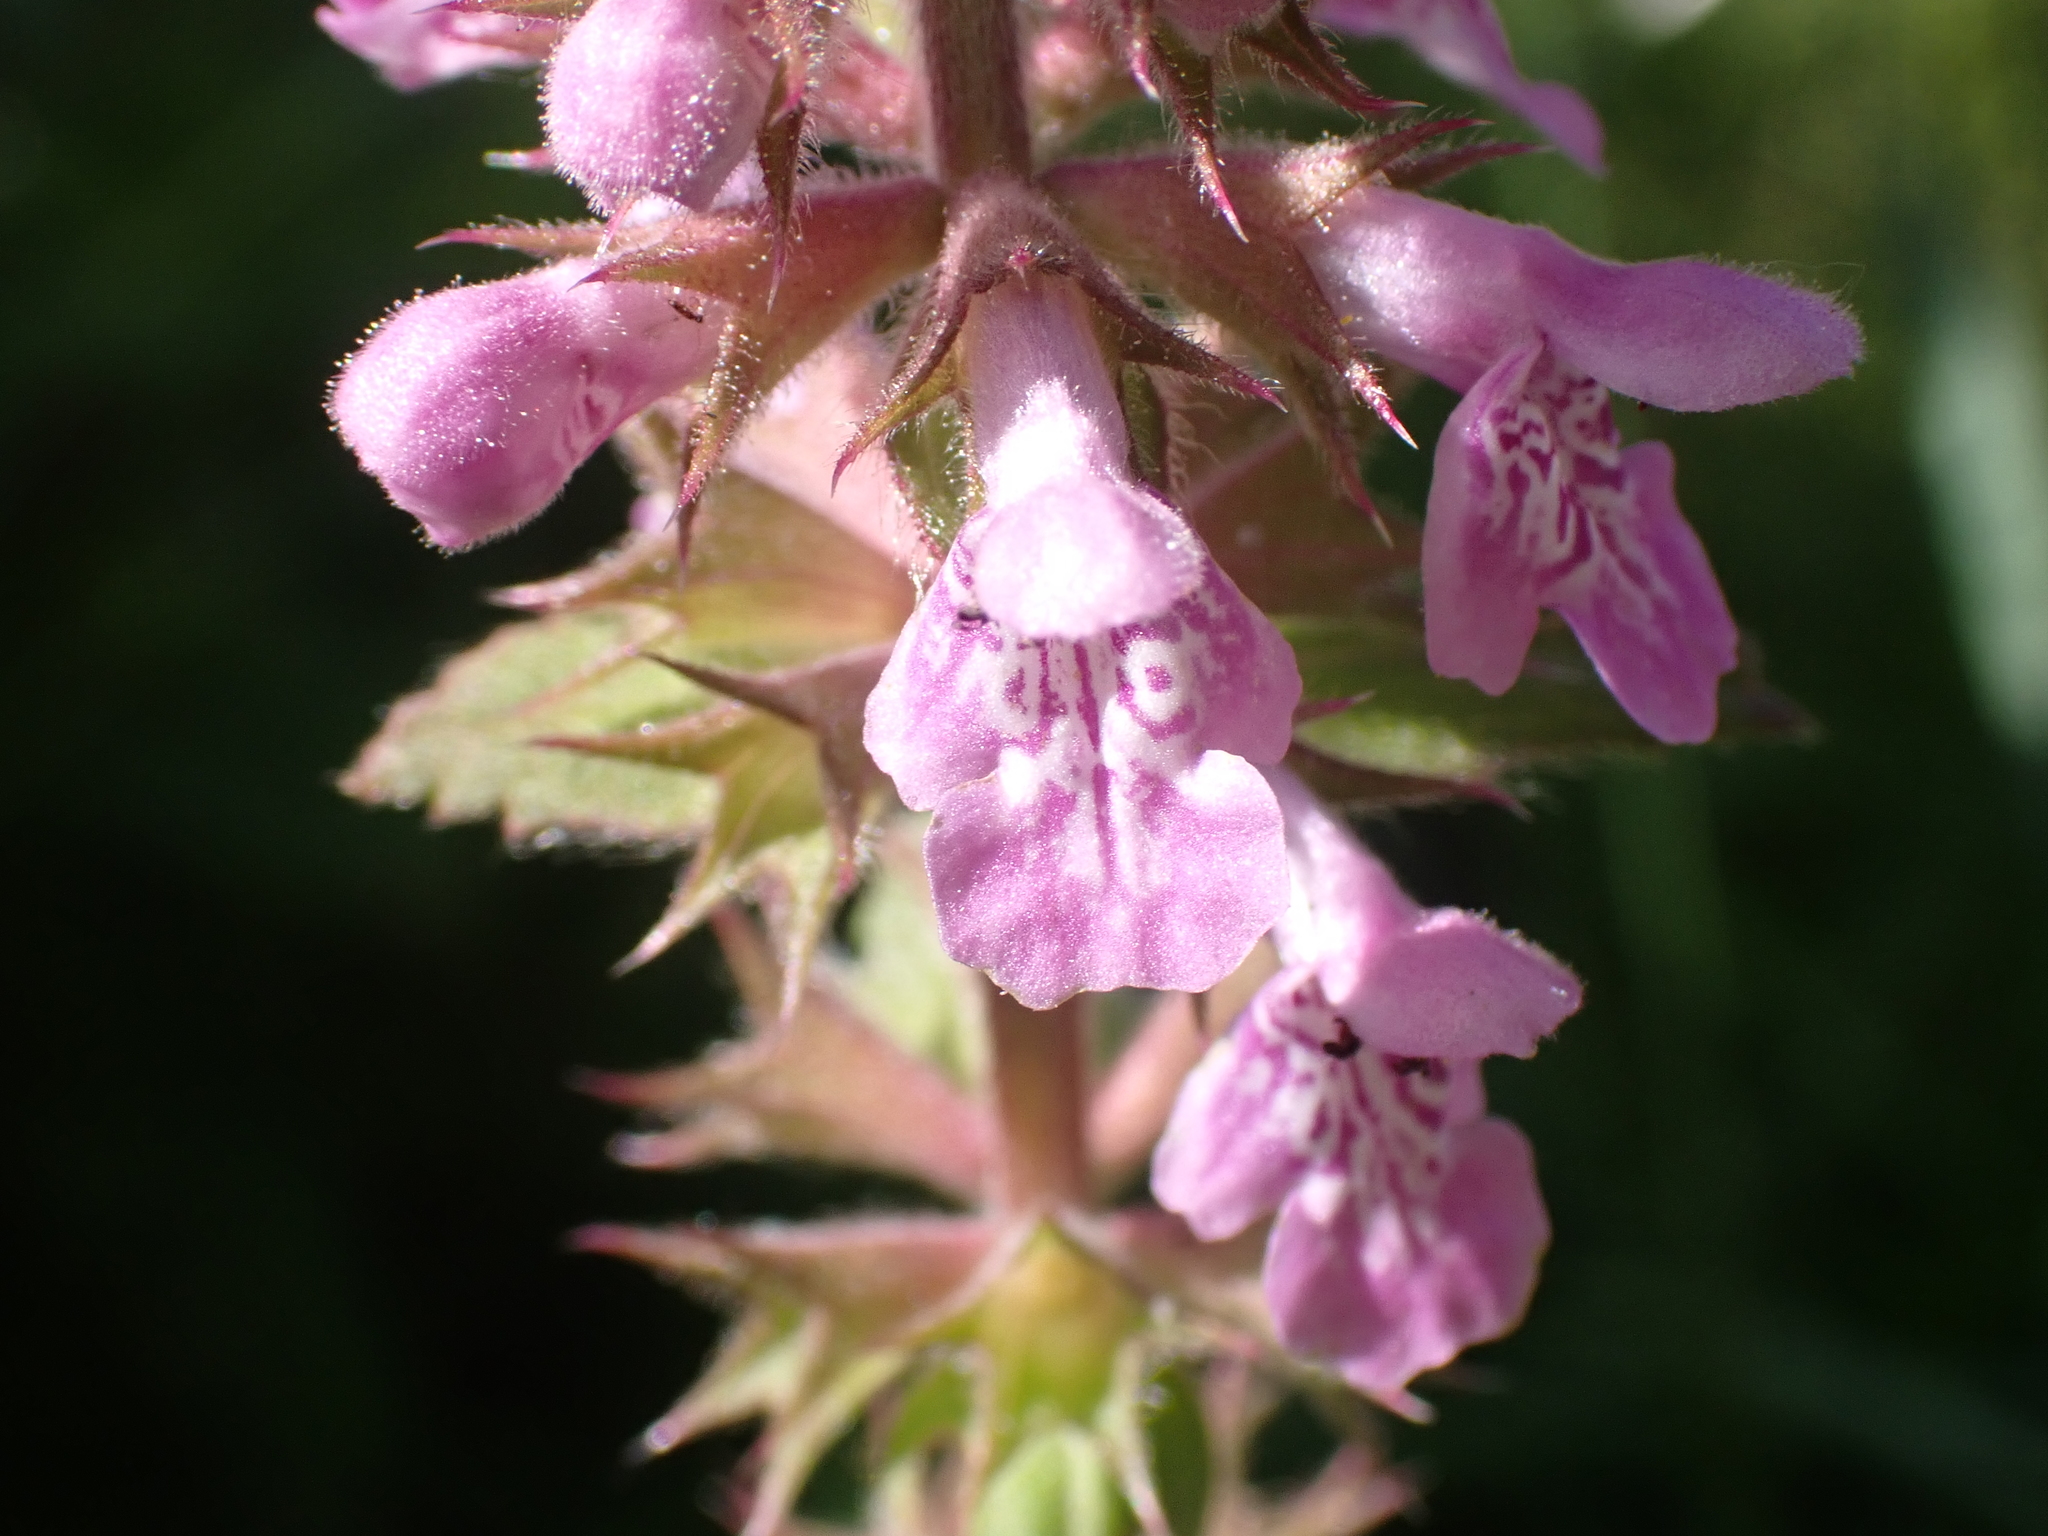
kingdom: Plantae
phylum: Tracheophyta
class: Magnoliopsida
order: Lamiales
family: Lamiaceae
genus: Stachys
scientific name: Stachys palustris
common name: Marsh woundwort
